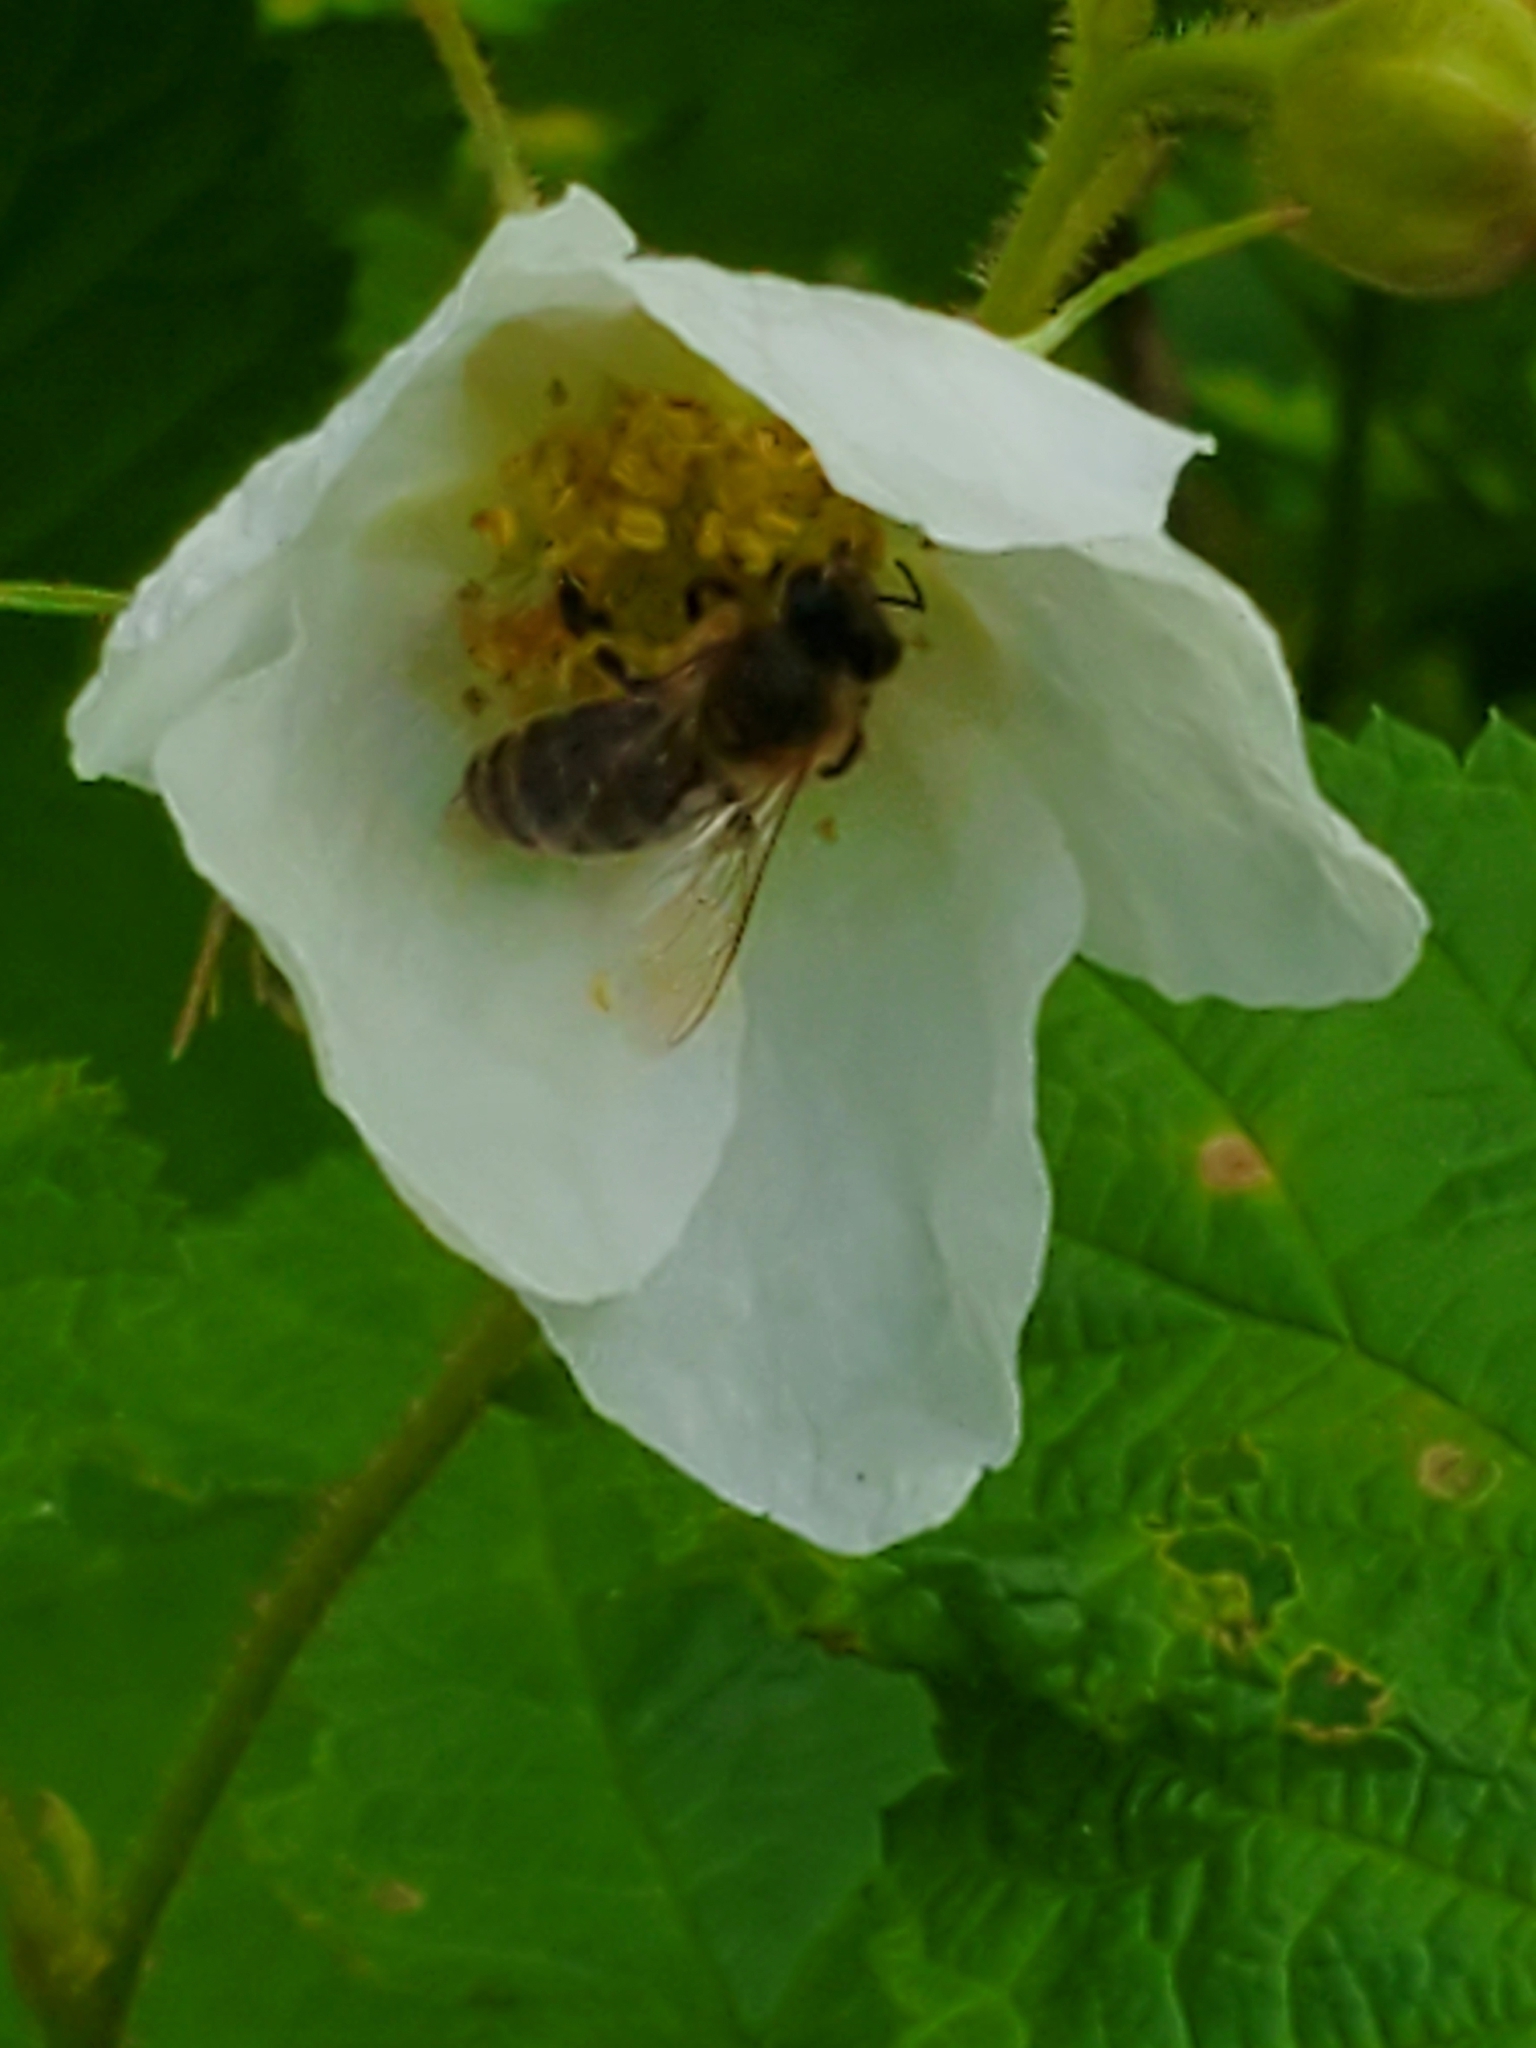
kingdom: Animalia
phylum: Arthropoda
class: Insecta
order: Hymenoptera
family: Apidae
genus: Apis
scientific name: Apis mellifera
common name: Honey bee
